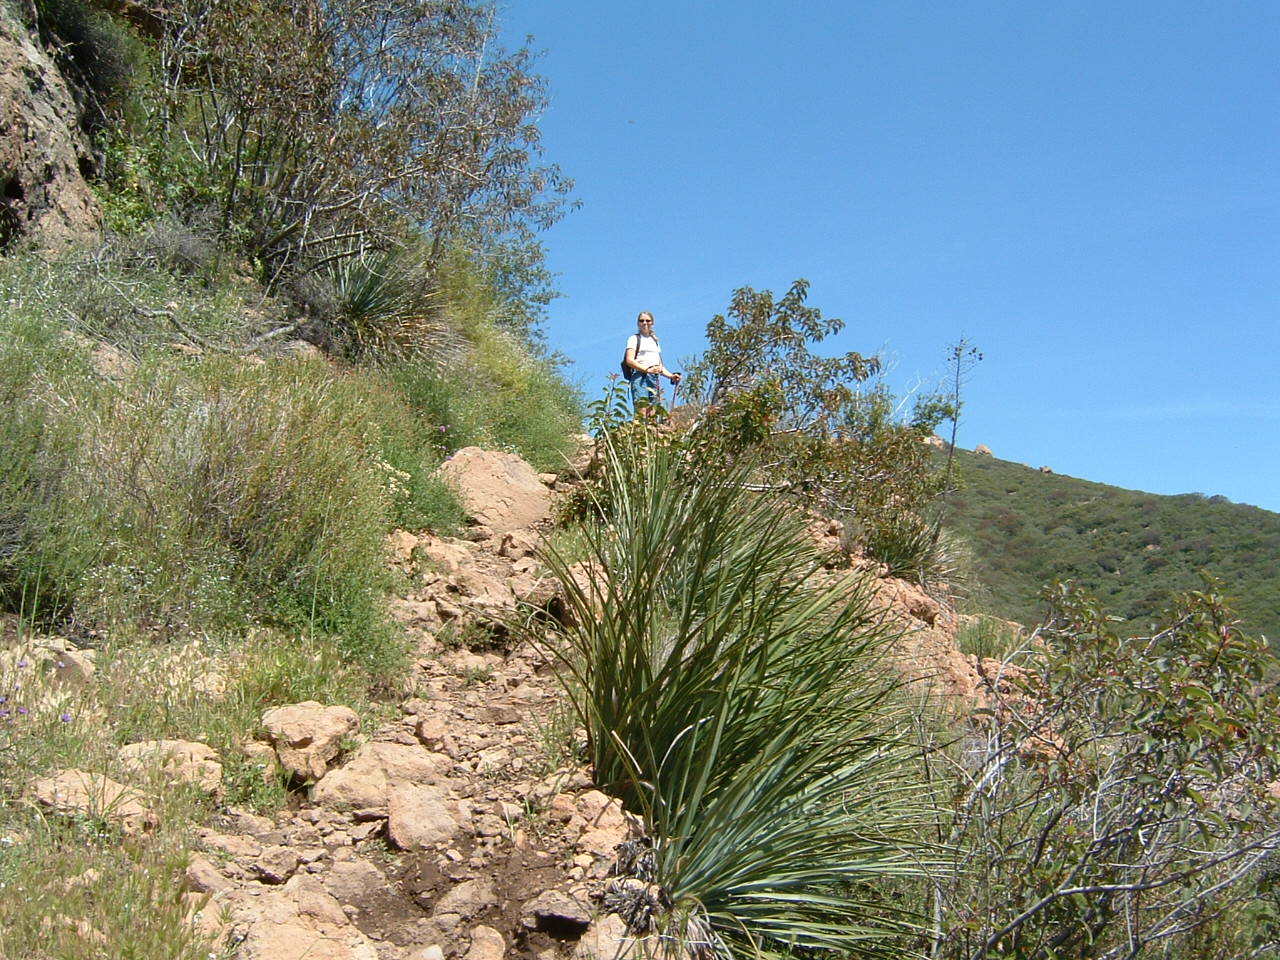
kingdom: Plantae
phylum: Tracheophyta
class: Liliopsida
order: Asparagales
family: Asparagaceae
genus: Hesperoyucca
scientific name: Hesperoyucca whipplei
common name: Our lord's-candle
